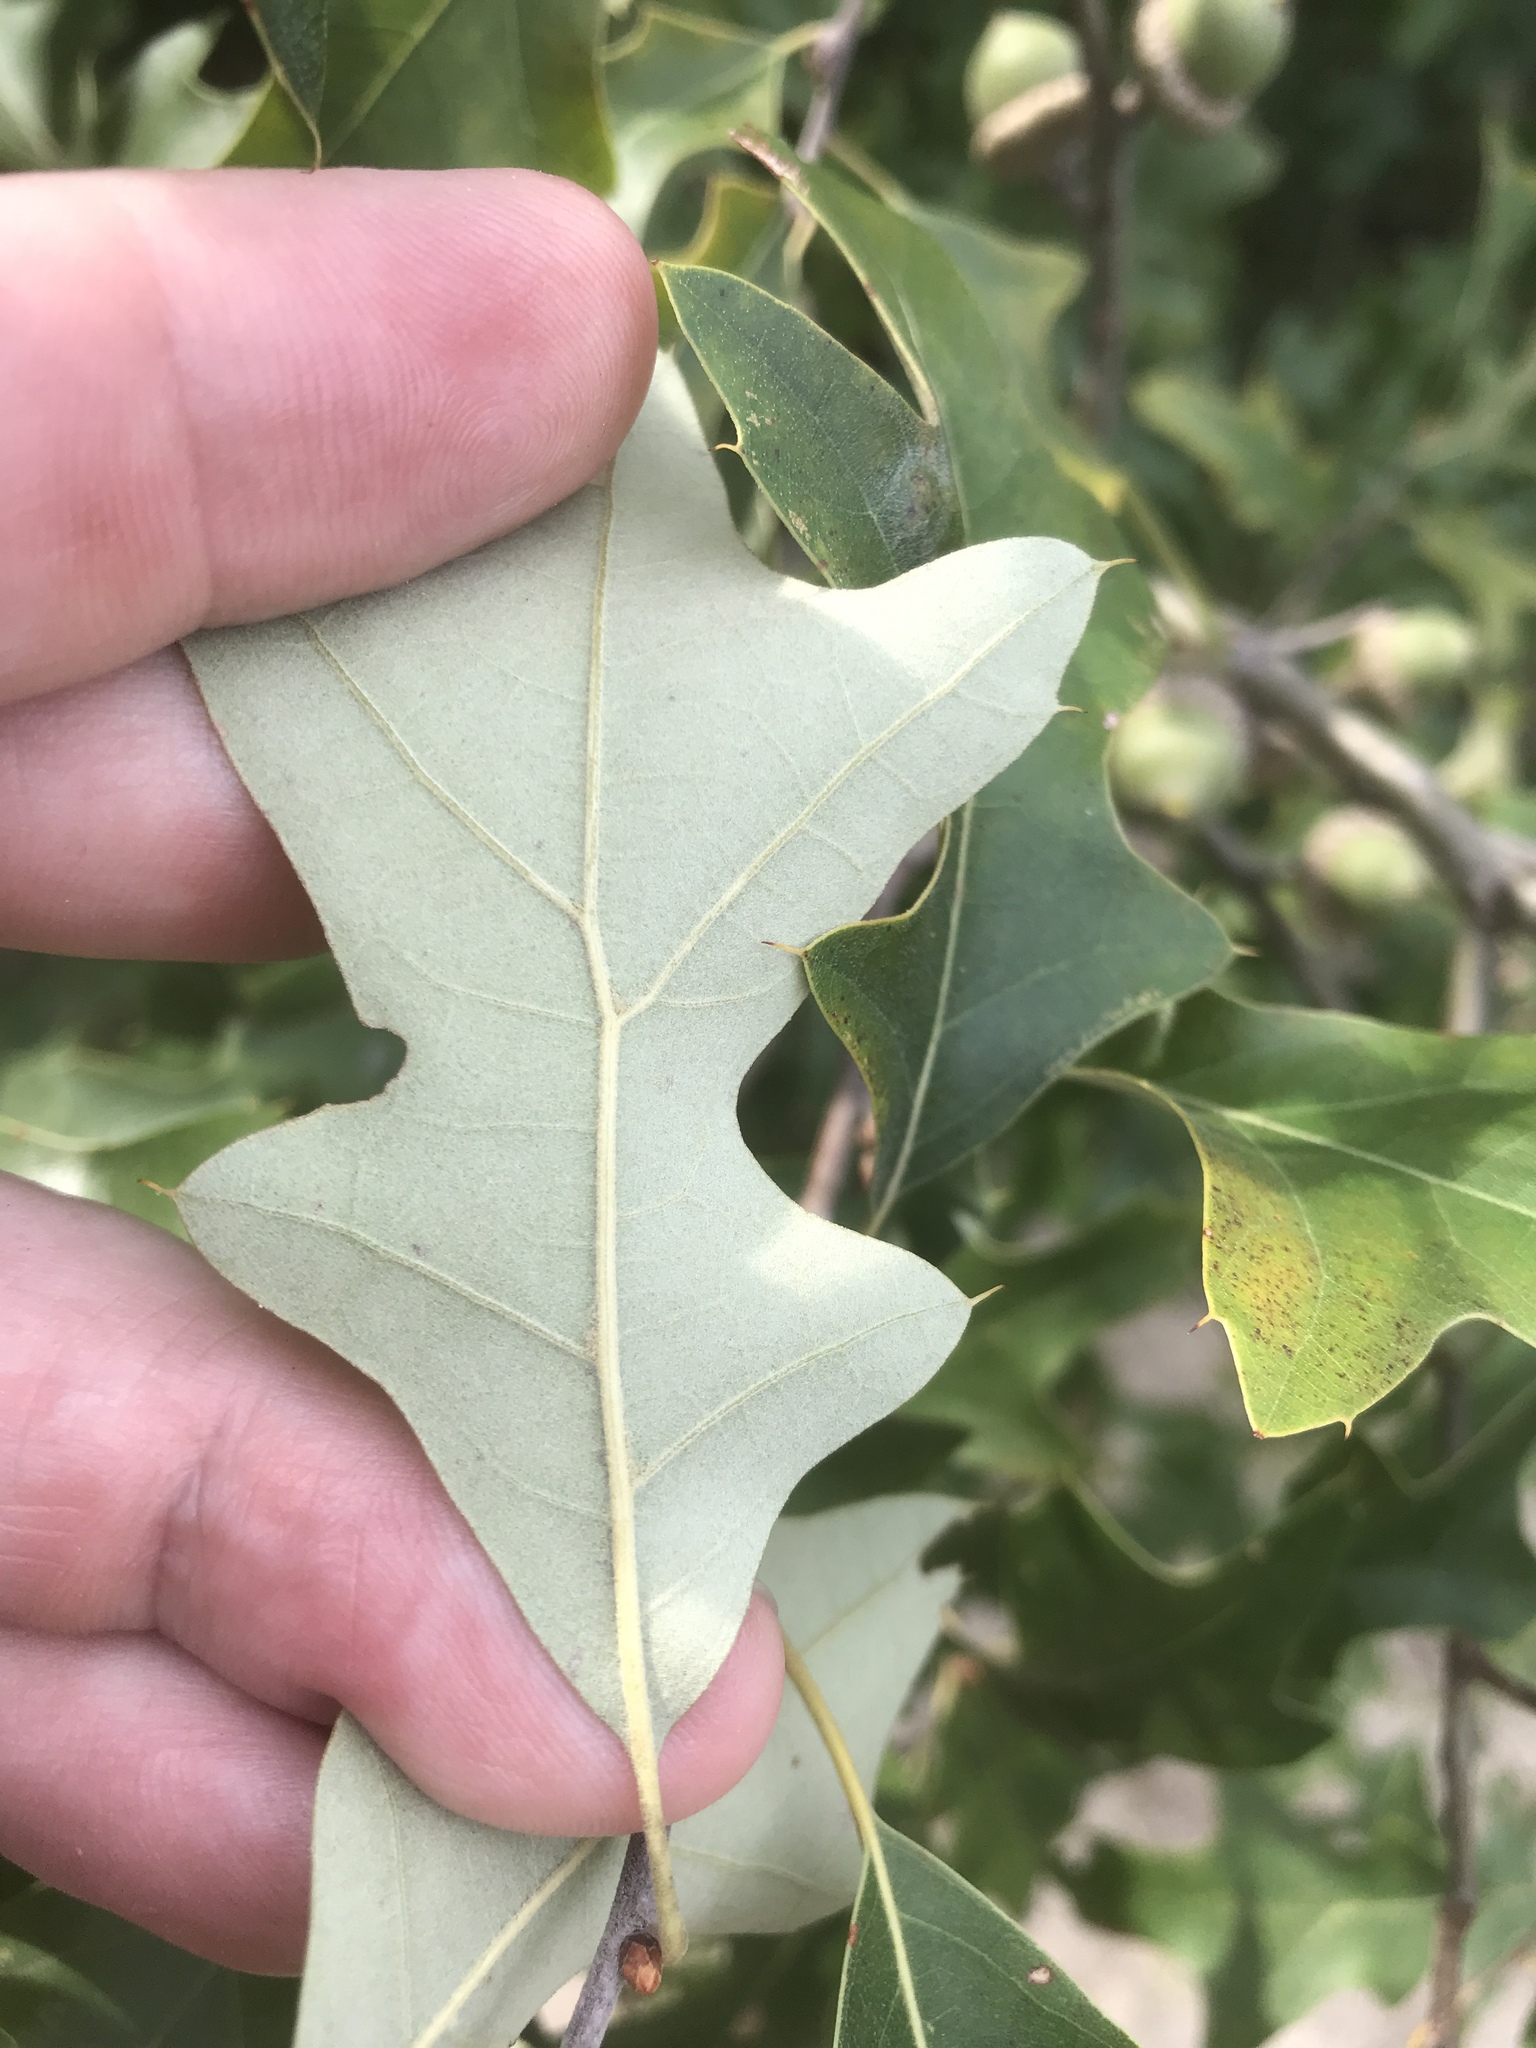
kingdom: Plantae
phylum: Tracheophyta
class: Magnoliopsida
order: Fagales
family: Fagaceae
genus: Quercus
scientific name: Quercus ilicifolia
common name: Bear oak
